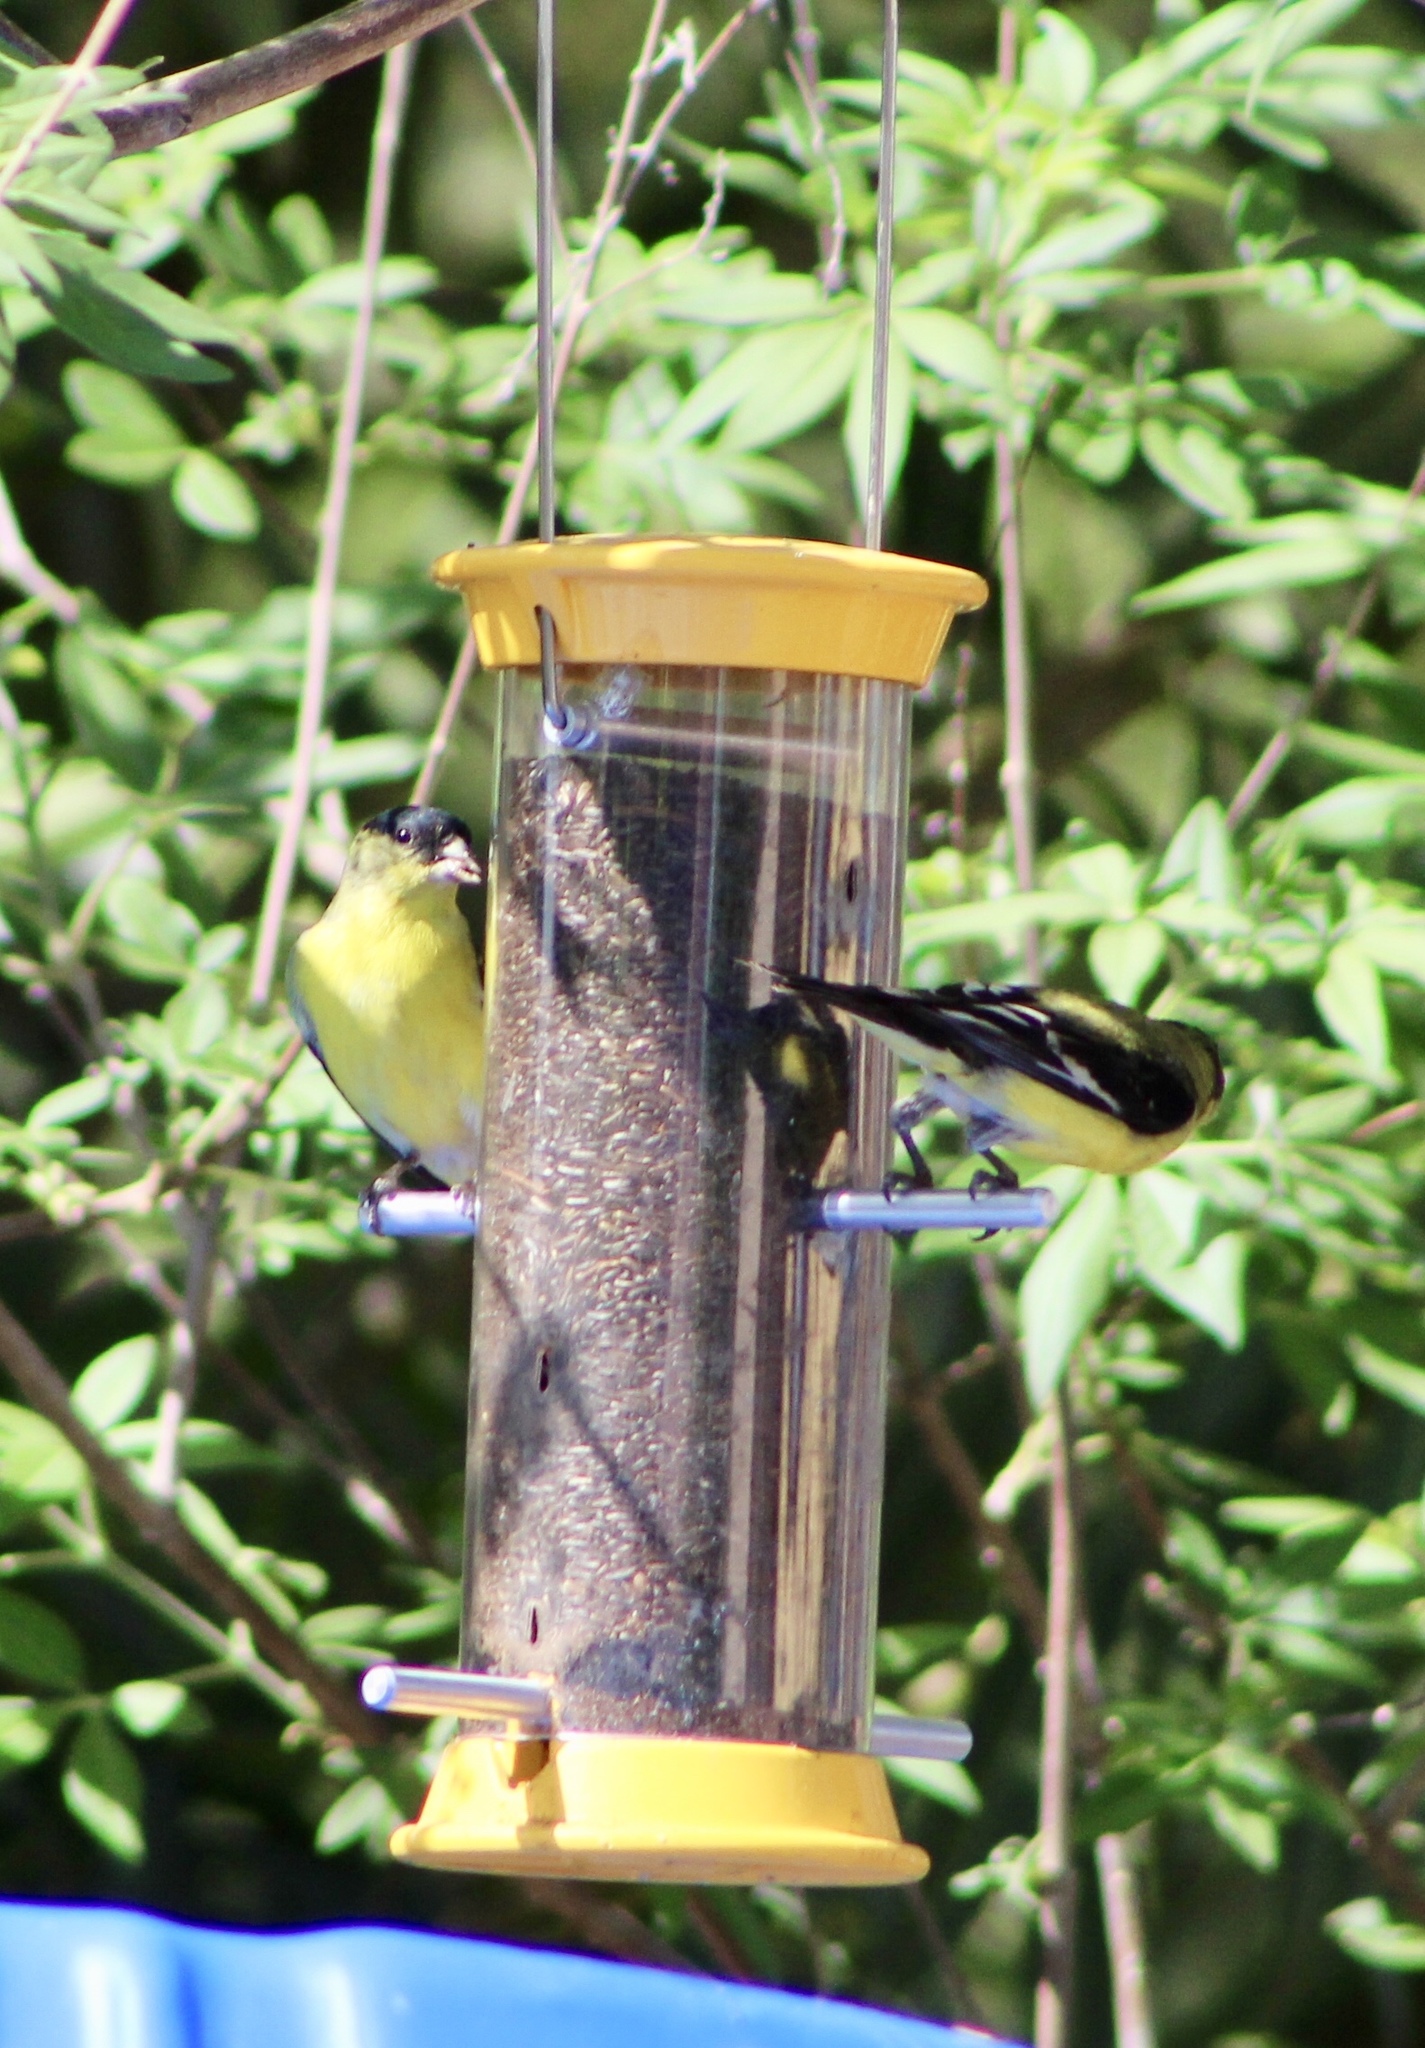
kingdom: Animalia
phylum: Chordata
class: Aves
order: Passeriformes
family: Fringillidae
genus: Spinus
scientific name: Spinus psaltria
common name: Lesser goldfinch
